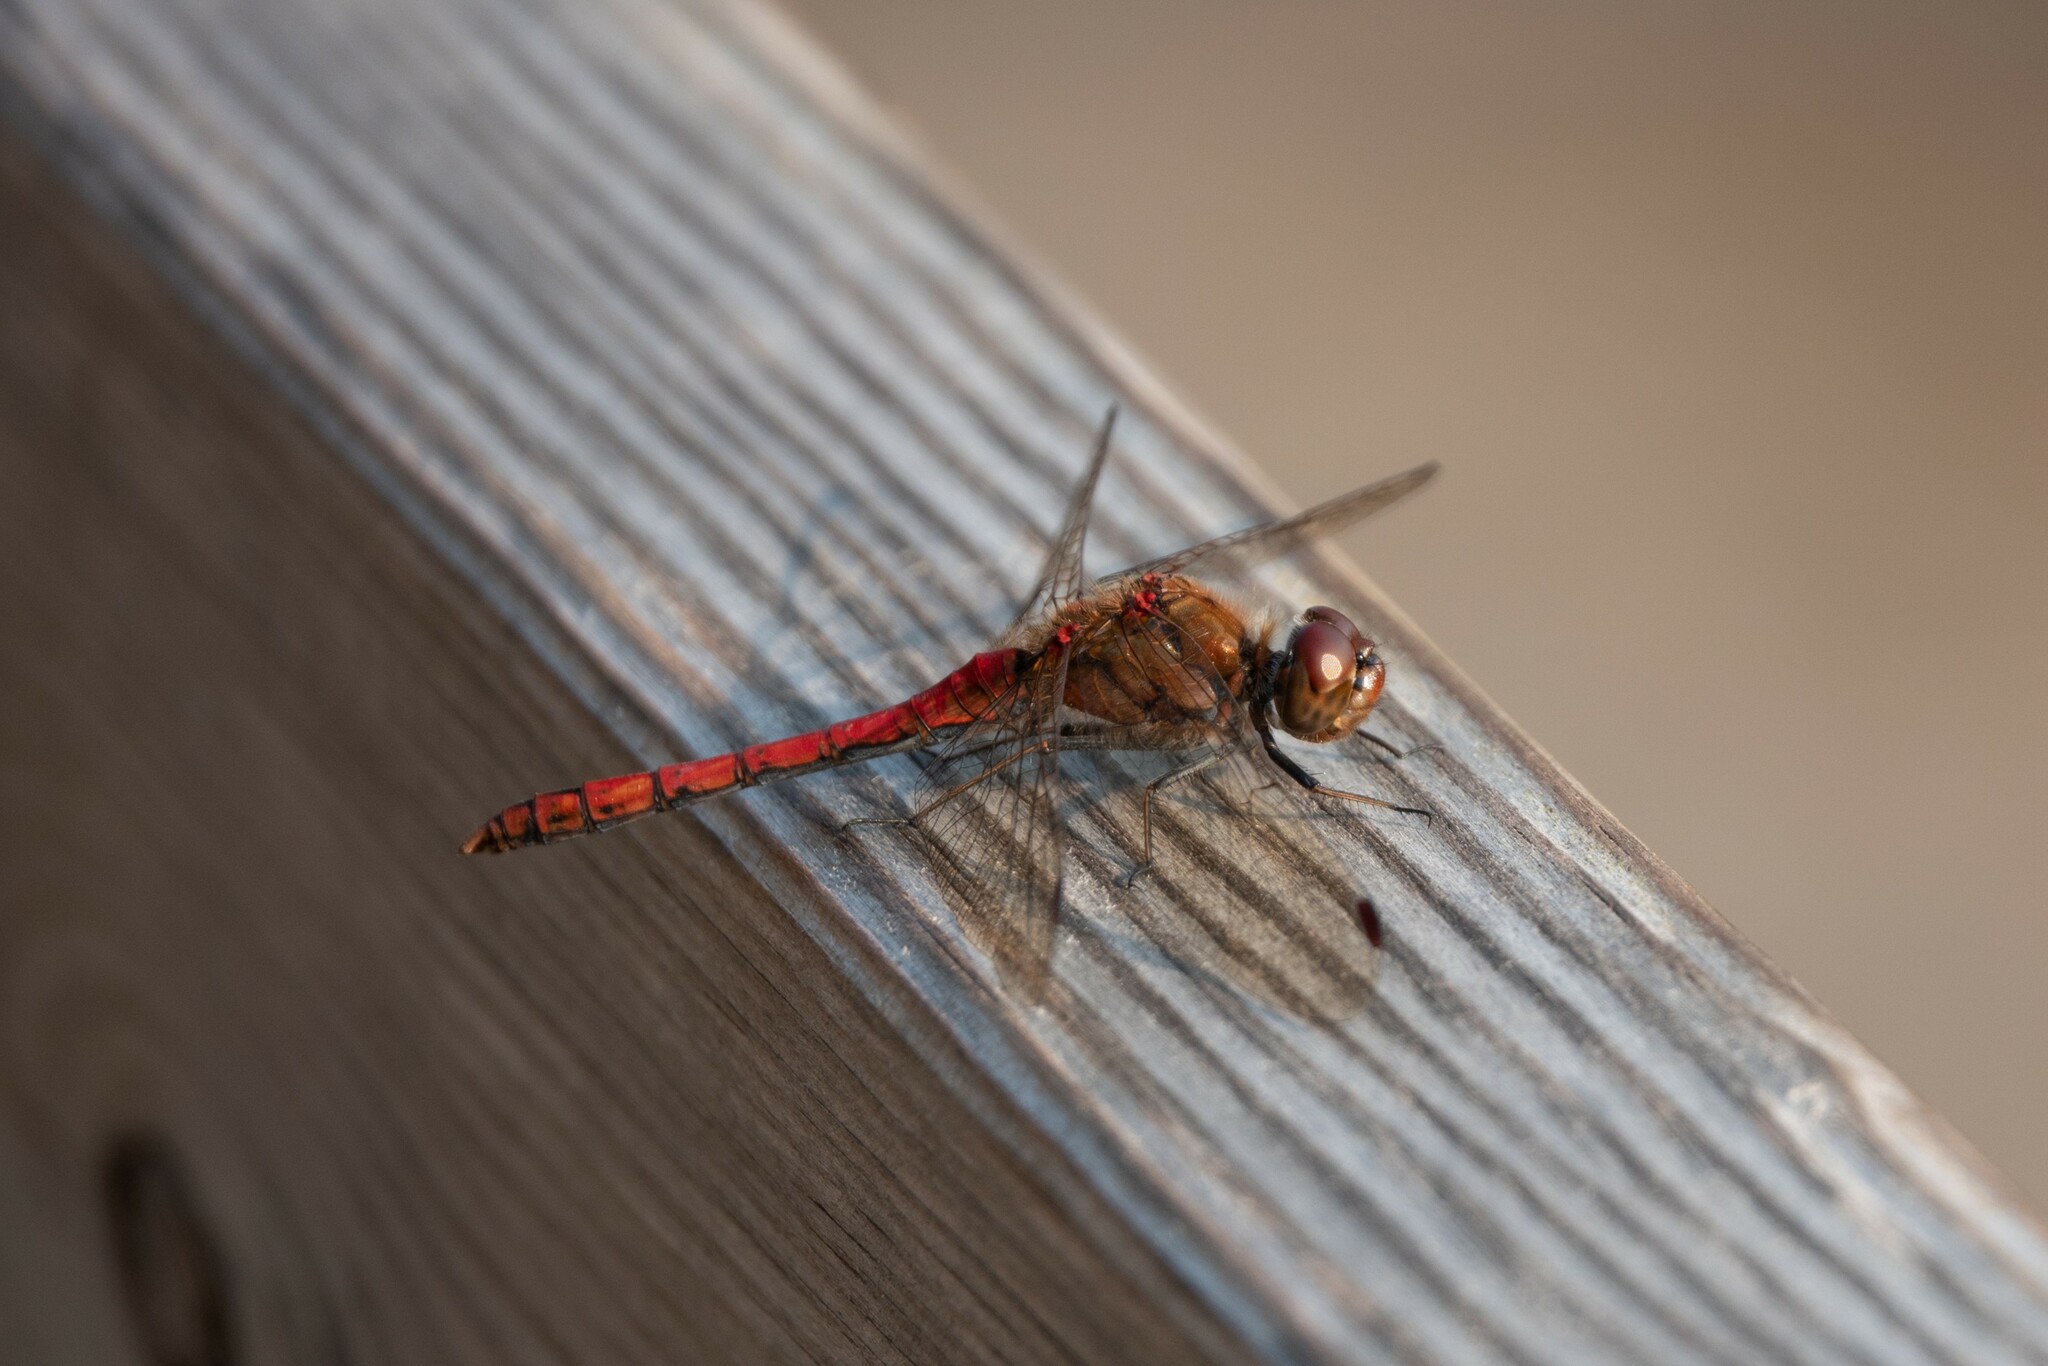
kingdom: Animalia
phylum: Arthropoda
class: Insecta
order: Odonata
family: Libellulidae
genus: Sympetrum
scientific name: Sympetrum vulgatum
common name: Vagrant darter
